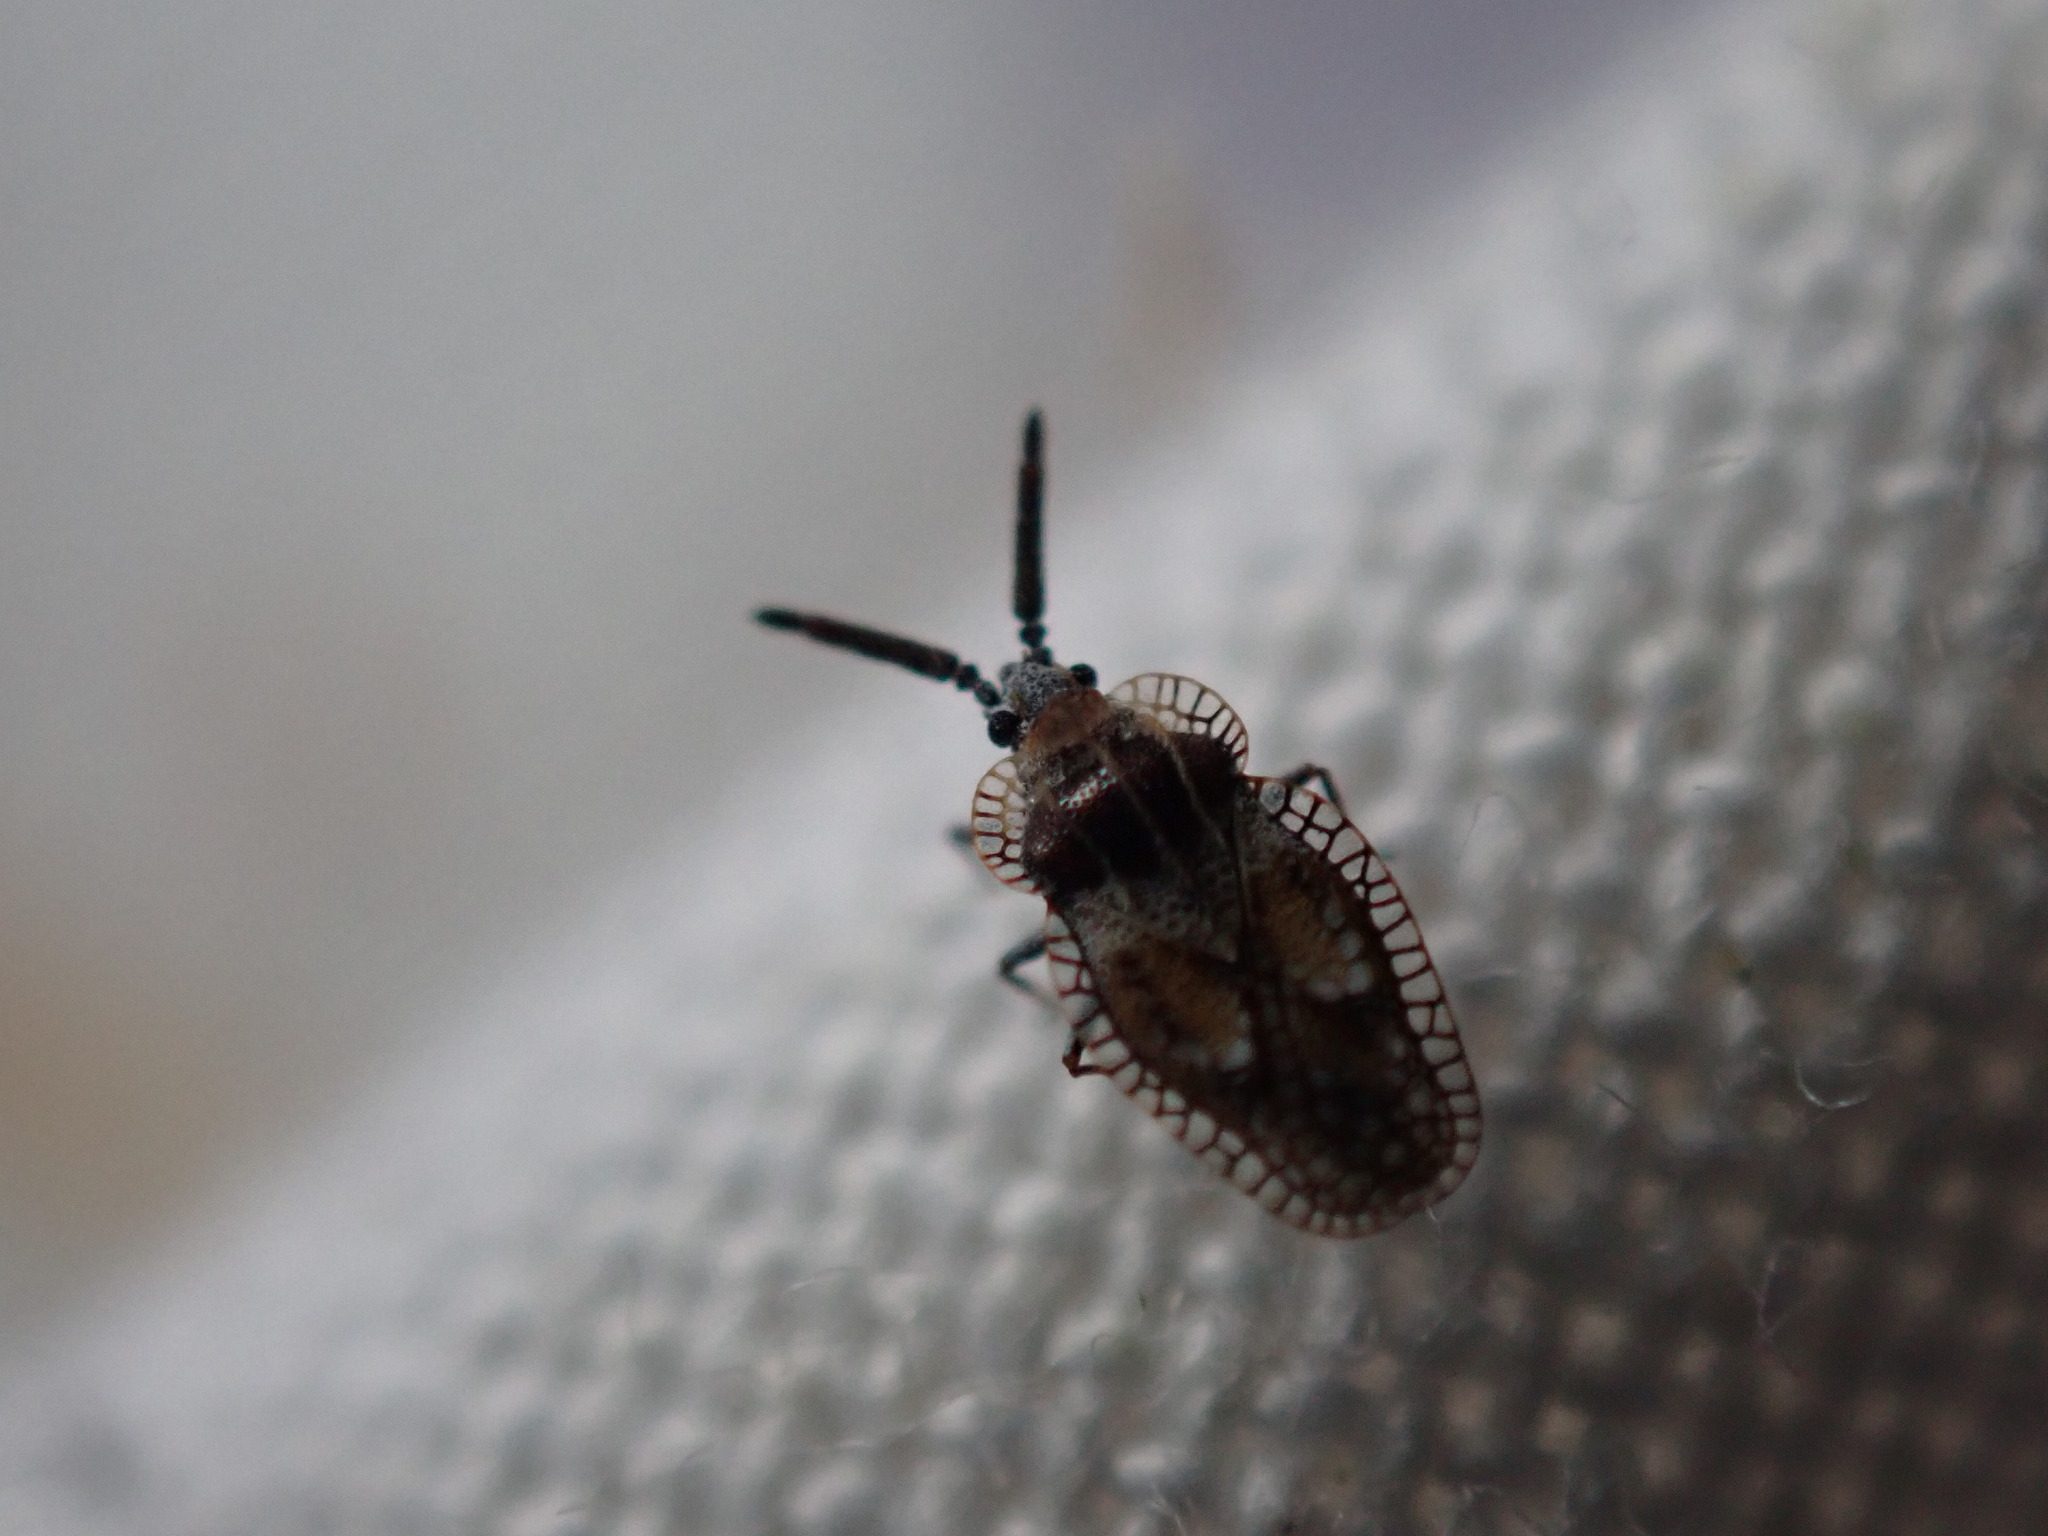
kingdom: Animalia
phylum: Arthropoda
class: Insecta
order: Hemiptera
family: Tingidae
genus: Dictyonota
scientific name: Dictyonota strichnocera
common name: Gorse lacebug
